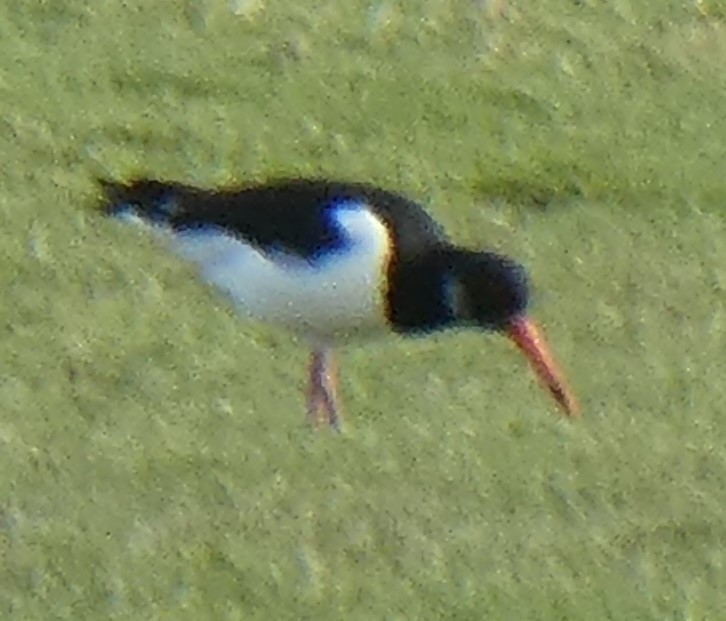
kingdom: Animalia
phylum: Chordata
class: Aves
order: Charadriiformes
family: Haematopodidae
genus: Haematopus
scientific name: Haematopus ostralegus
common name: Eurasian oystercatcher
